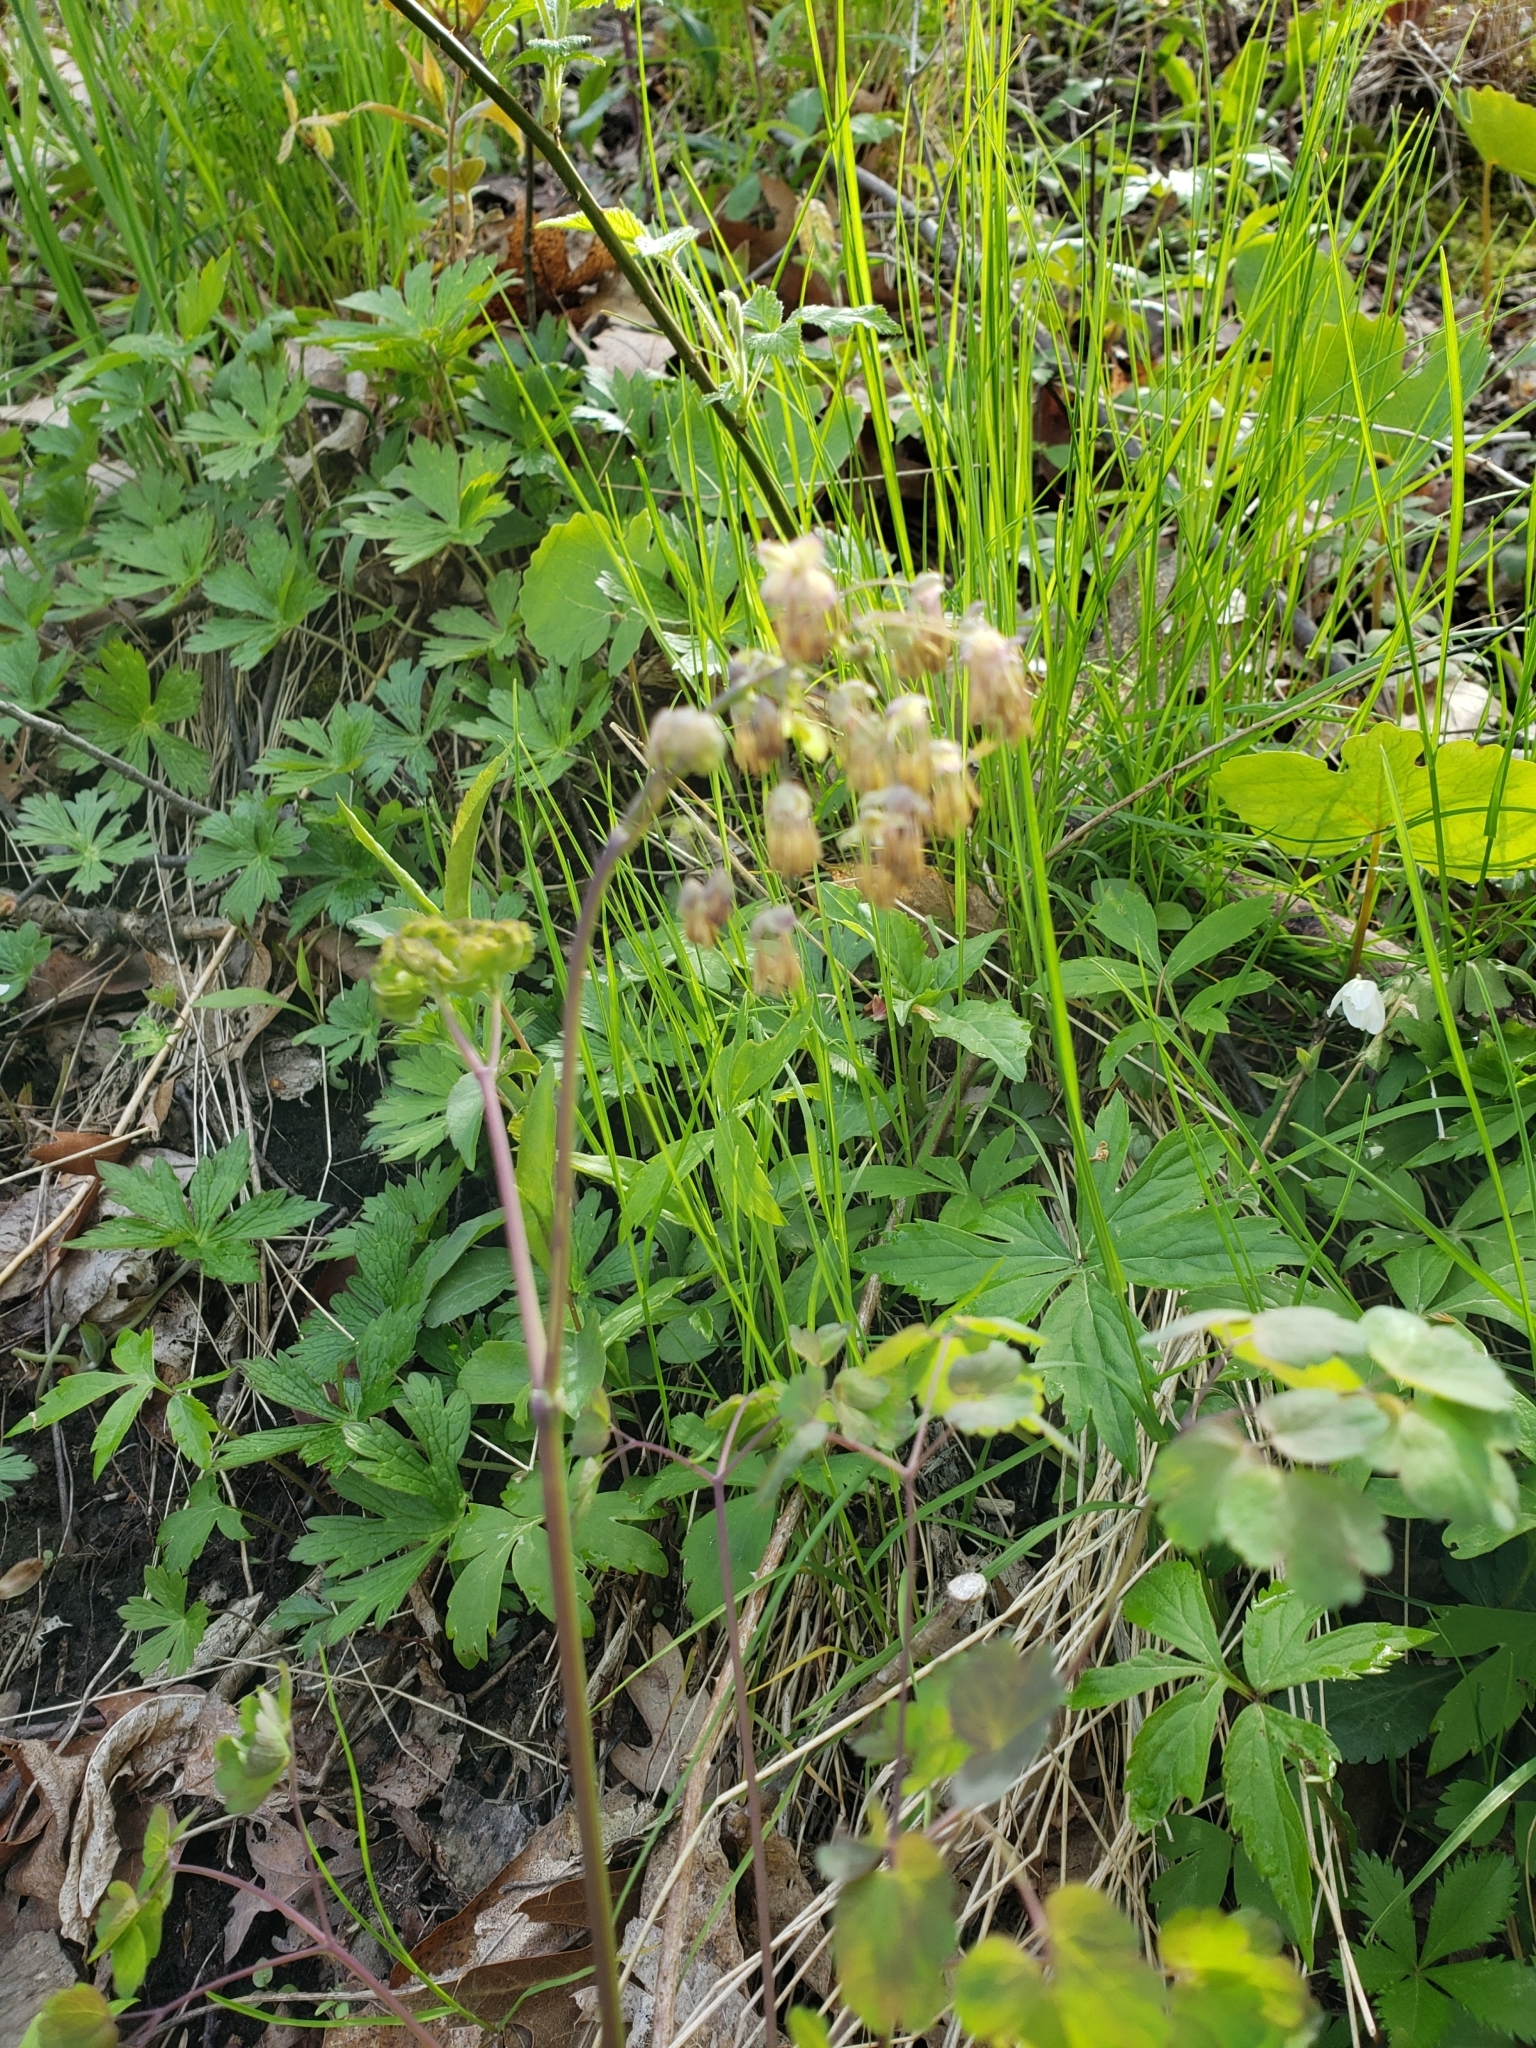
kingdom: Plantae
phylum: Tracheophyta
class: Magnoliopsida
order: Ranunculales
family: Ranunculaceae
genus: Thalictrum
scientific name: Thalictrum dioicum
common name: Early meadow-rue
